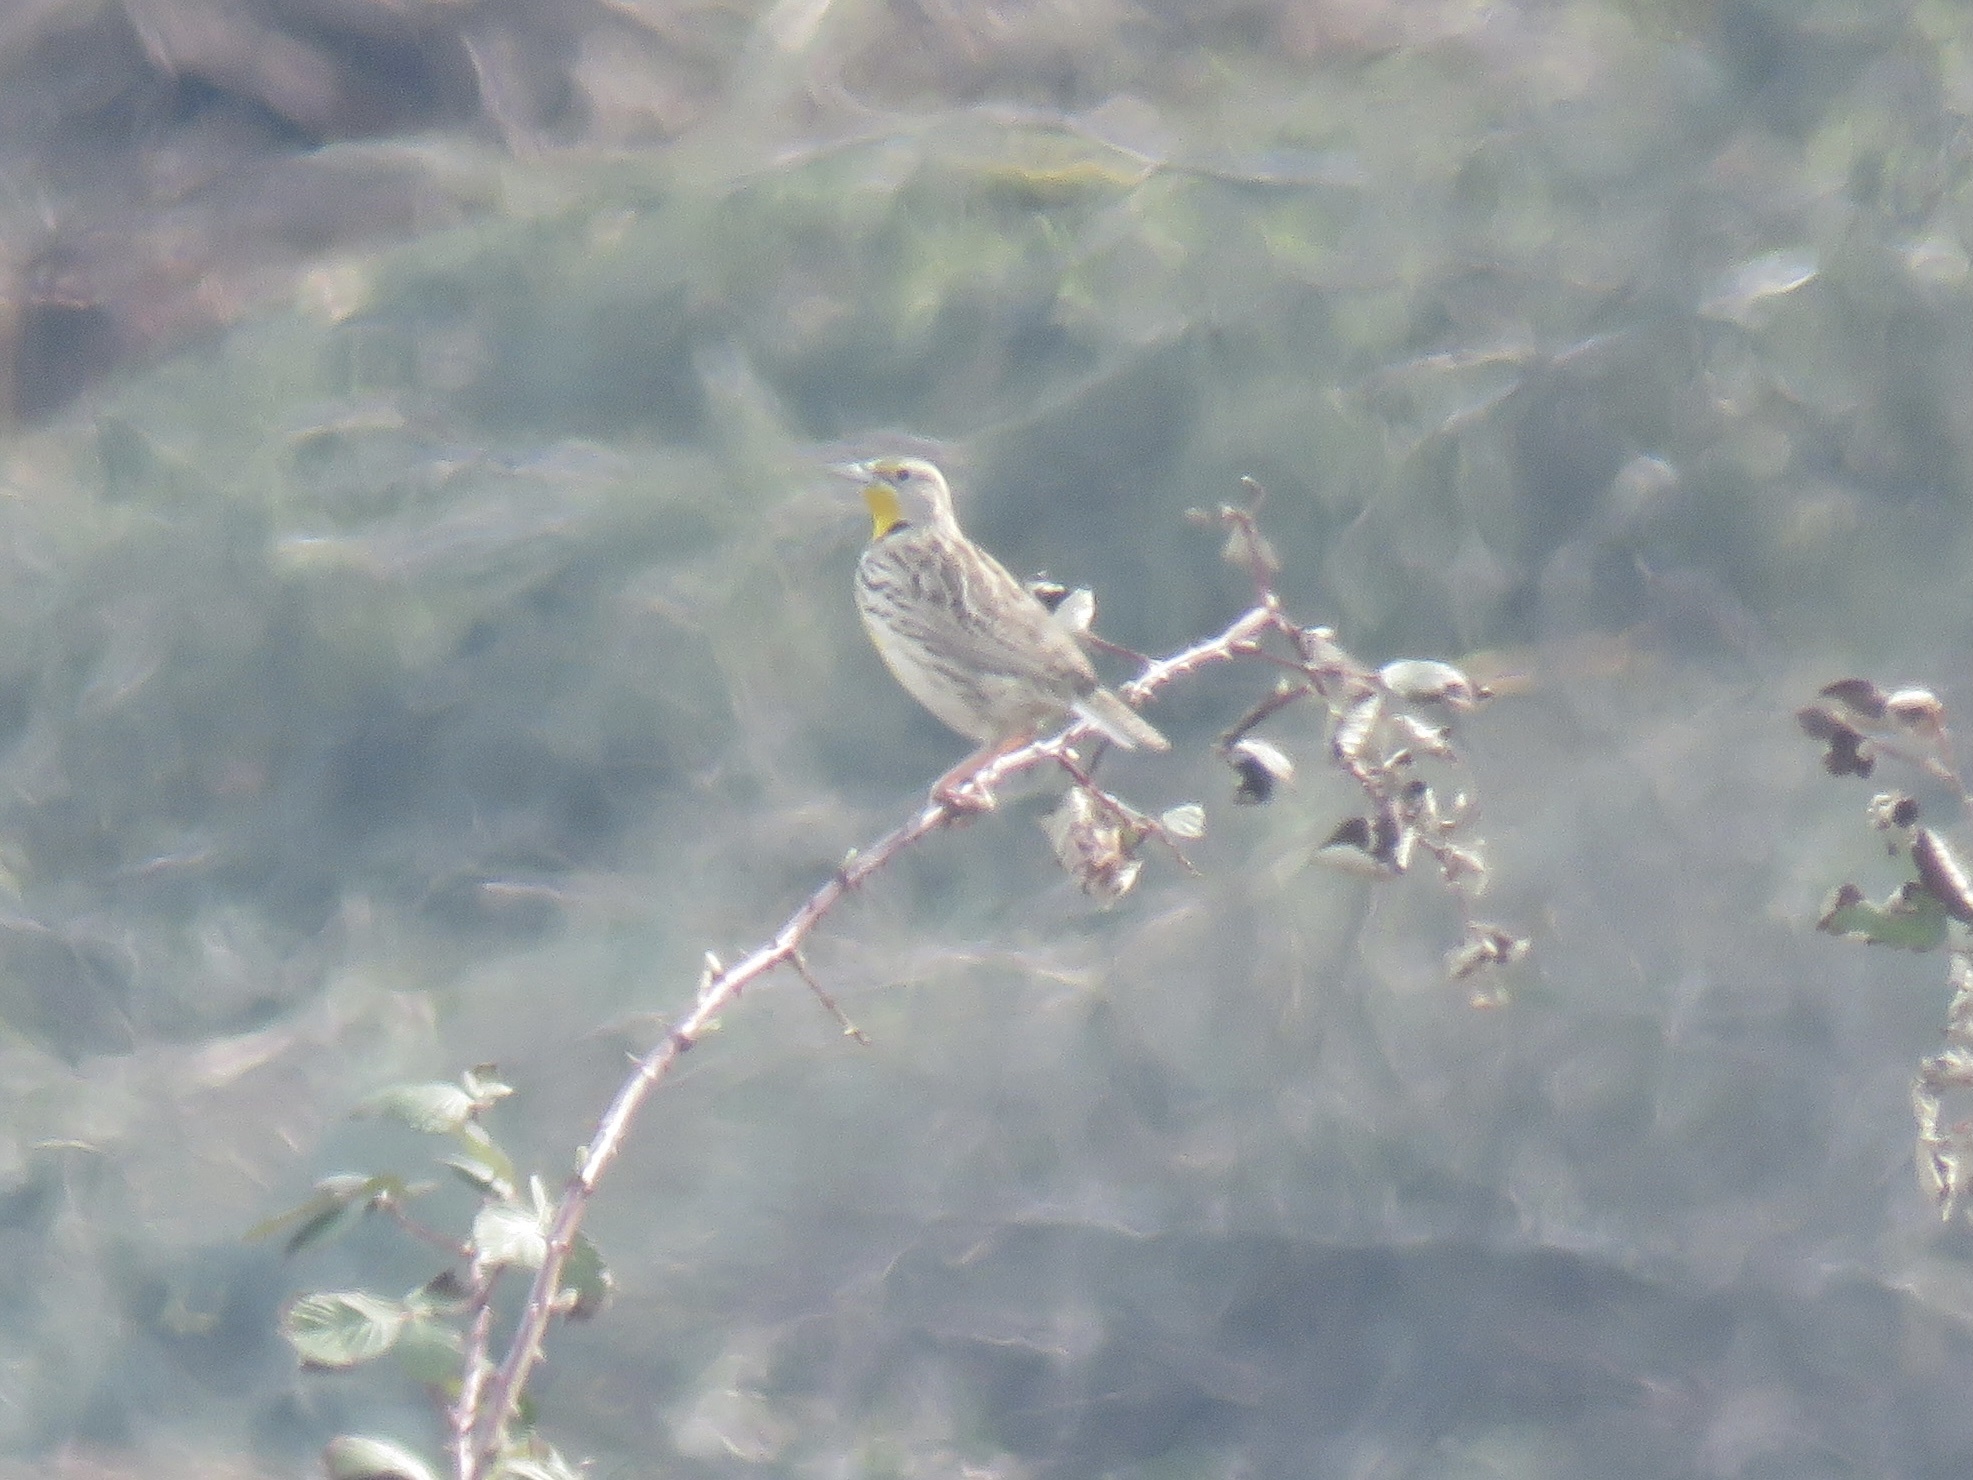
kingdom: Animalia
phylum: Chordata
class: Aves
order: Passeriformes
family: Icteridae
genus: Sturnella
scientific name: Sturnella neglecta
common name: Western meadowlark
